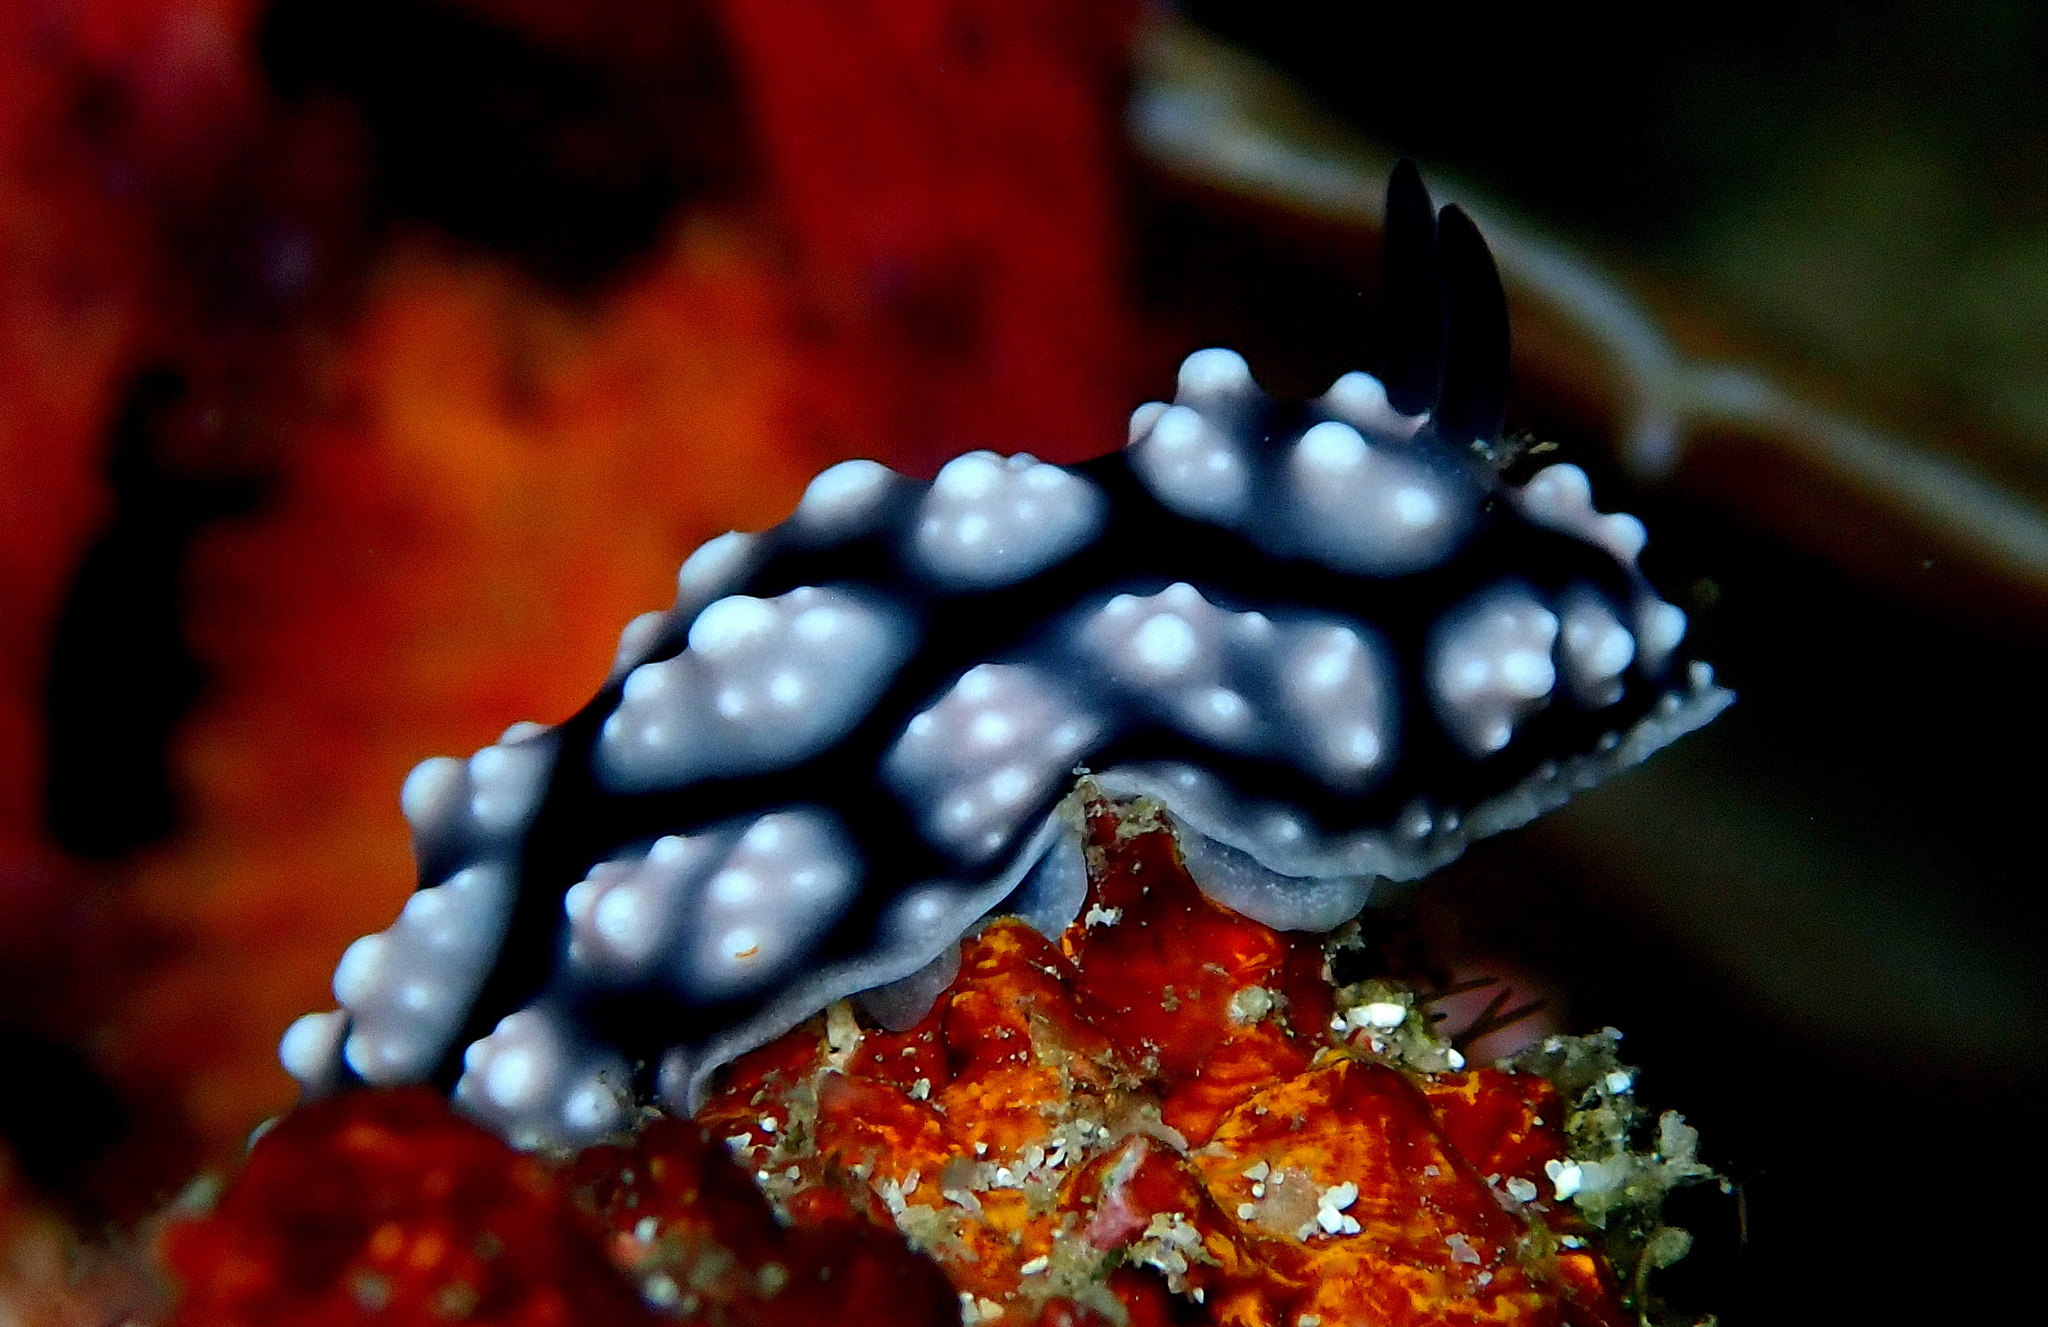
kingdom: Animalia
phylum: Mollusca
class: Gastropoda
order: Nudibranchia
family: Phyllidiidae
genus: Phyllidiella
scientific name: Phyllidiella pustulosa
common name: Pustular phyllidia
